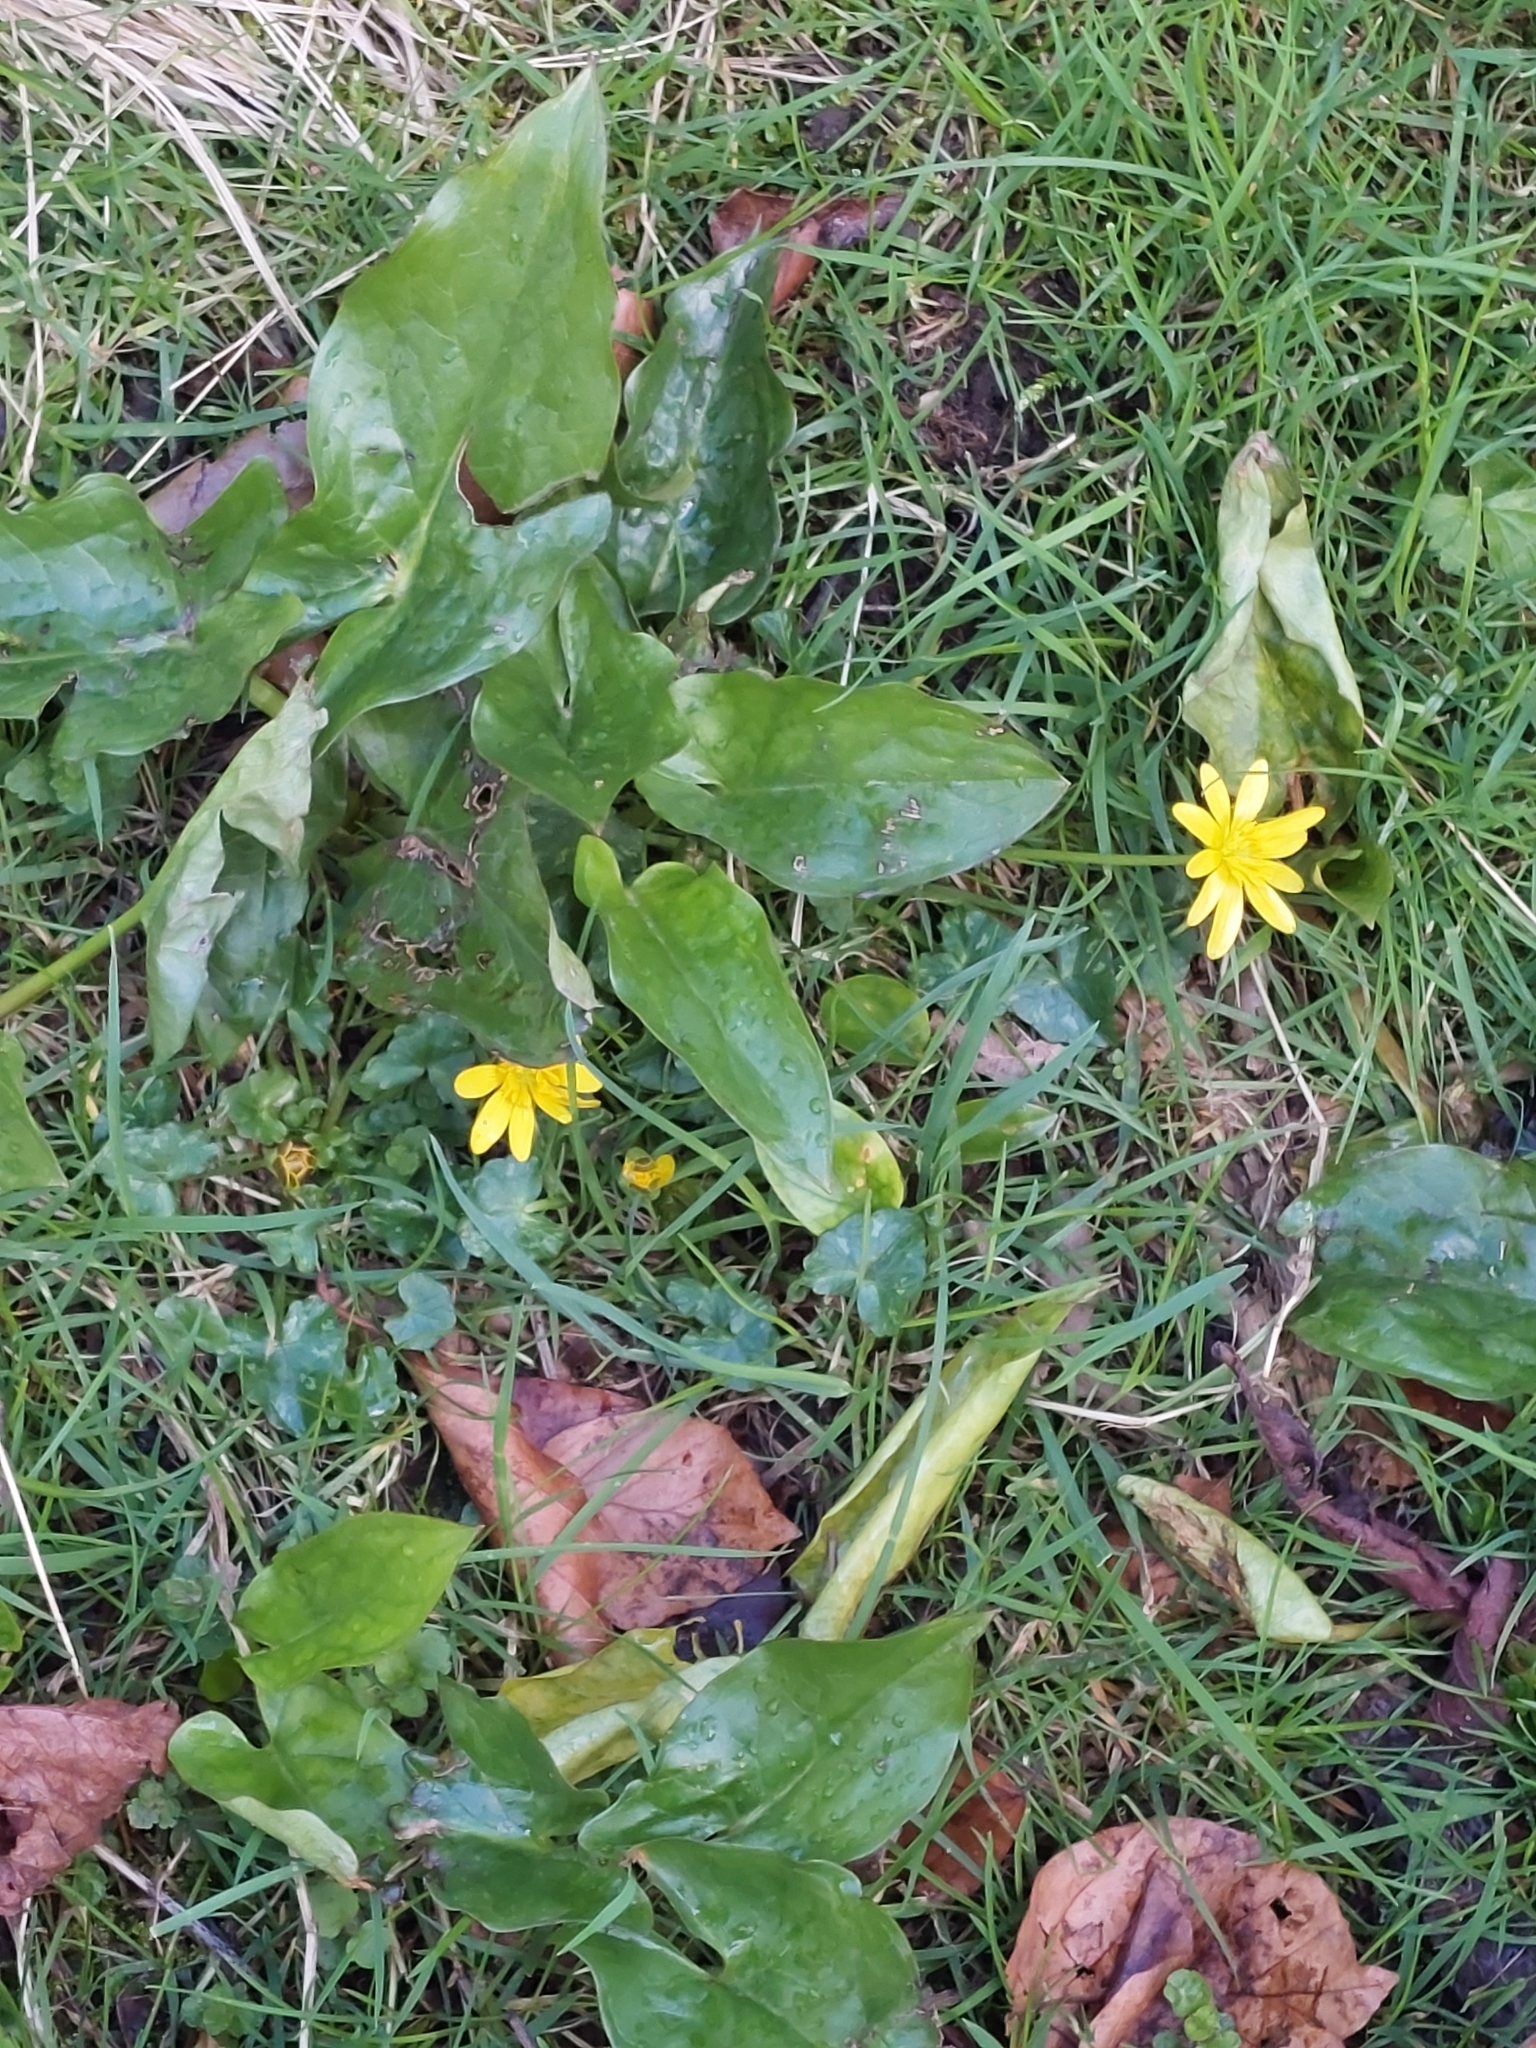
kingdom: Plantae
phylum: Tracheophyta
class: Magnoliopsida
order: Ranunculales
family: Ranunculaceae
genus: Ficaria
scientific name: Ficaria verna
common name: Lesser celandine
